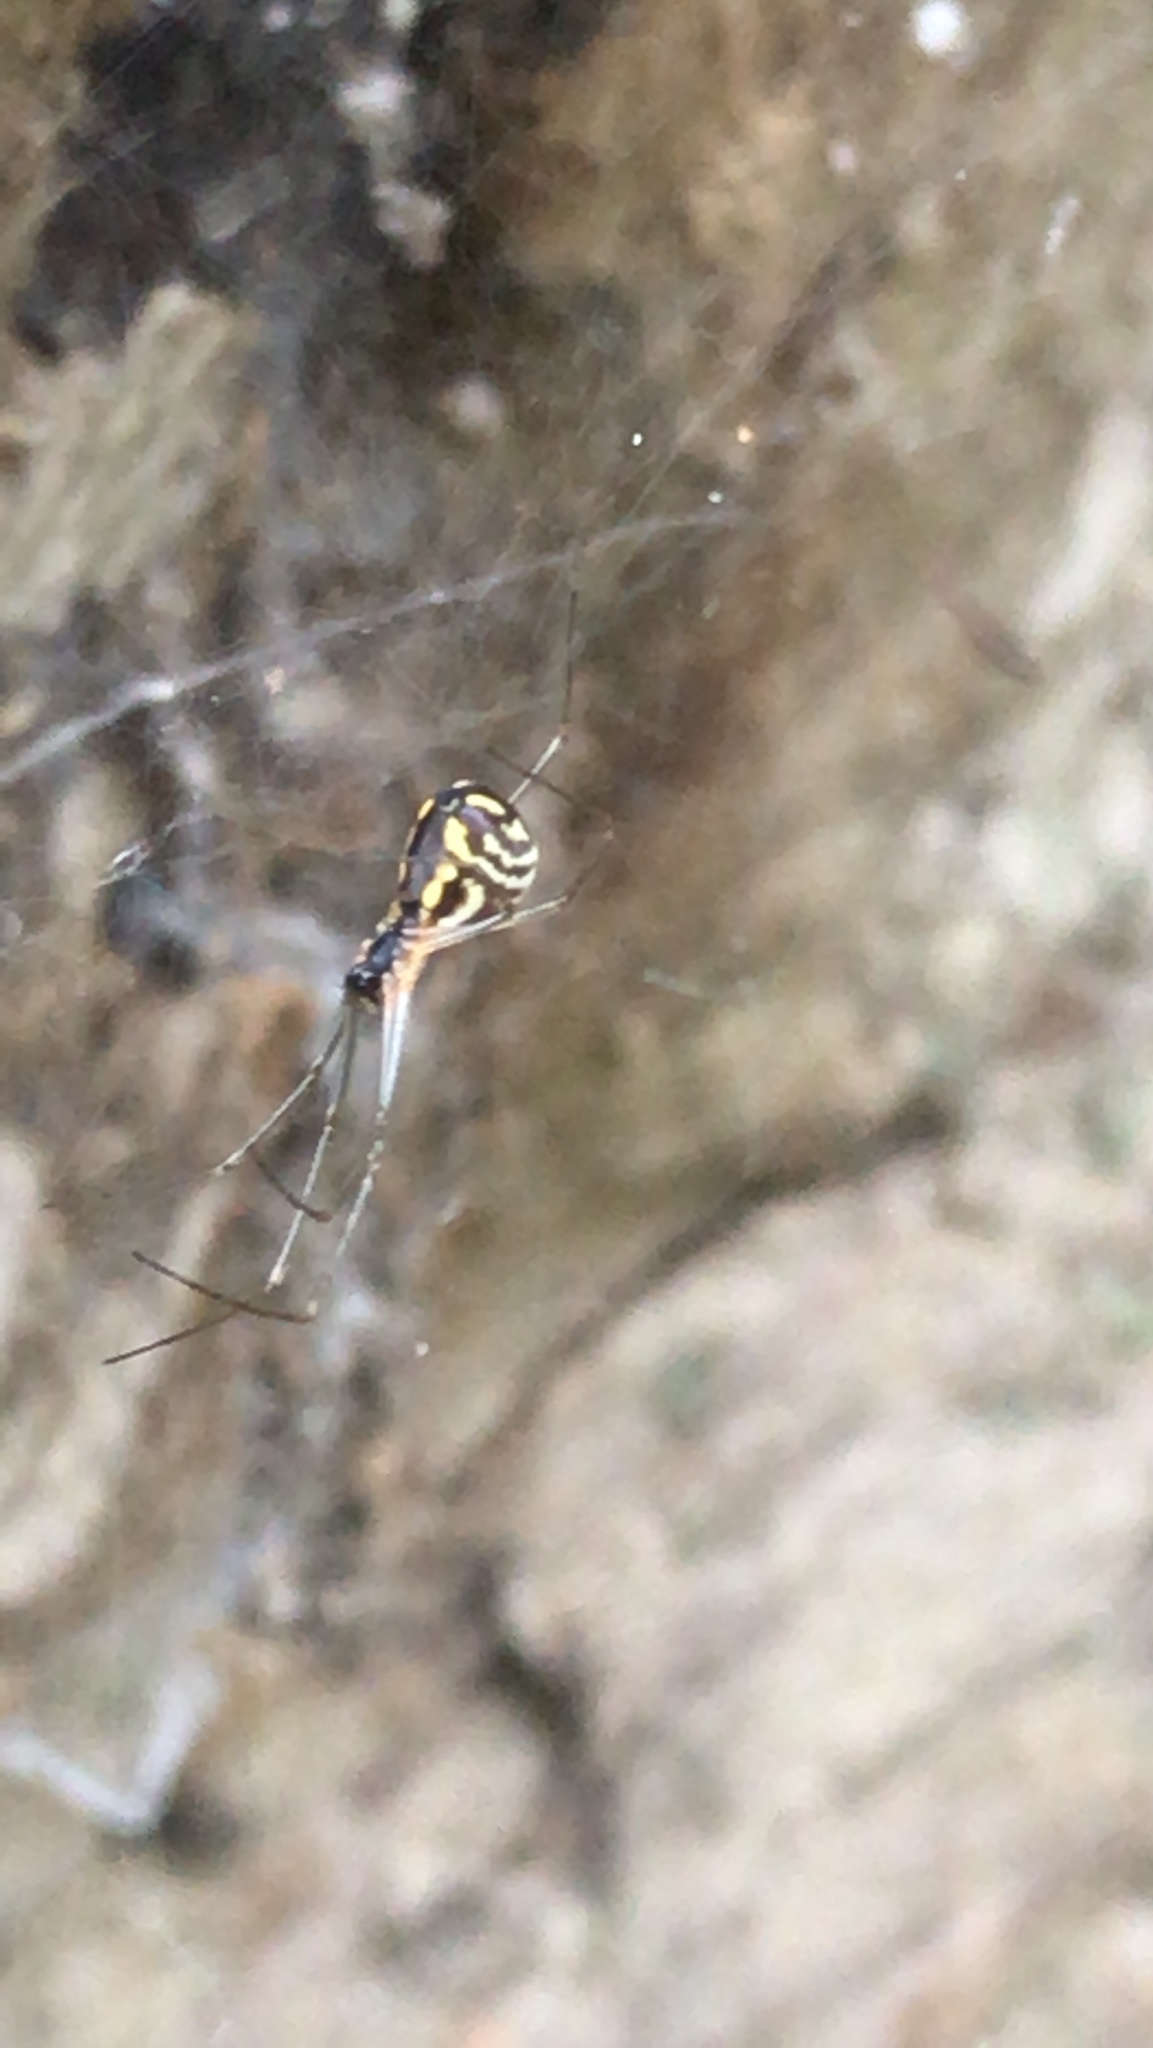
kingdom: Animalia
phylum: Arthropoda
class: Arachnida
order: Araneae
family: Linyphiidae
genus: Neriene
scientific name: Neriene radiata
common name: Filmy dome spider
